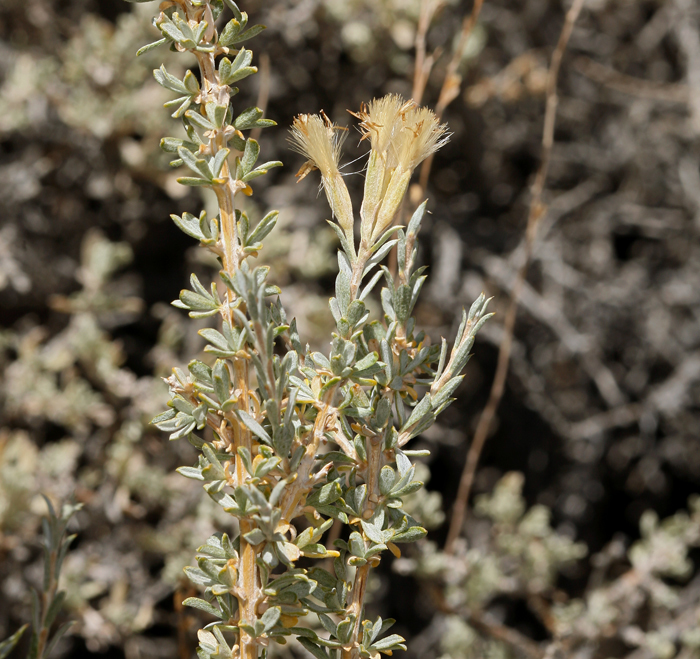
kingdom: Plantae
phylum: Tracheophyta
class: Magnoliopsida
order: Asterales
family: Asteraceae
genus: Tetradymia
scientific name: Tetradymia canescens
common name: Spineless horsebrush
